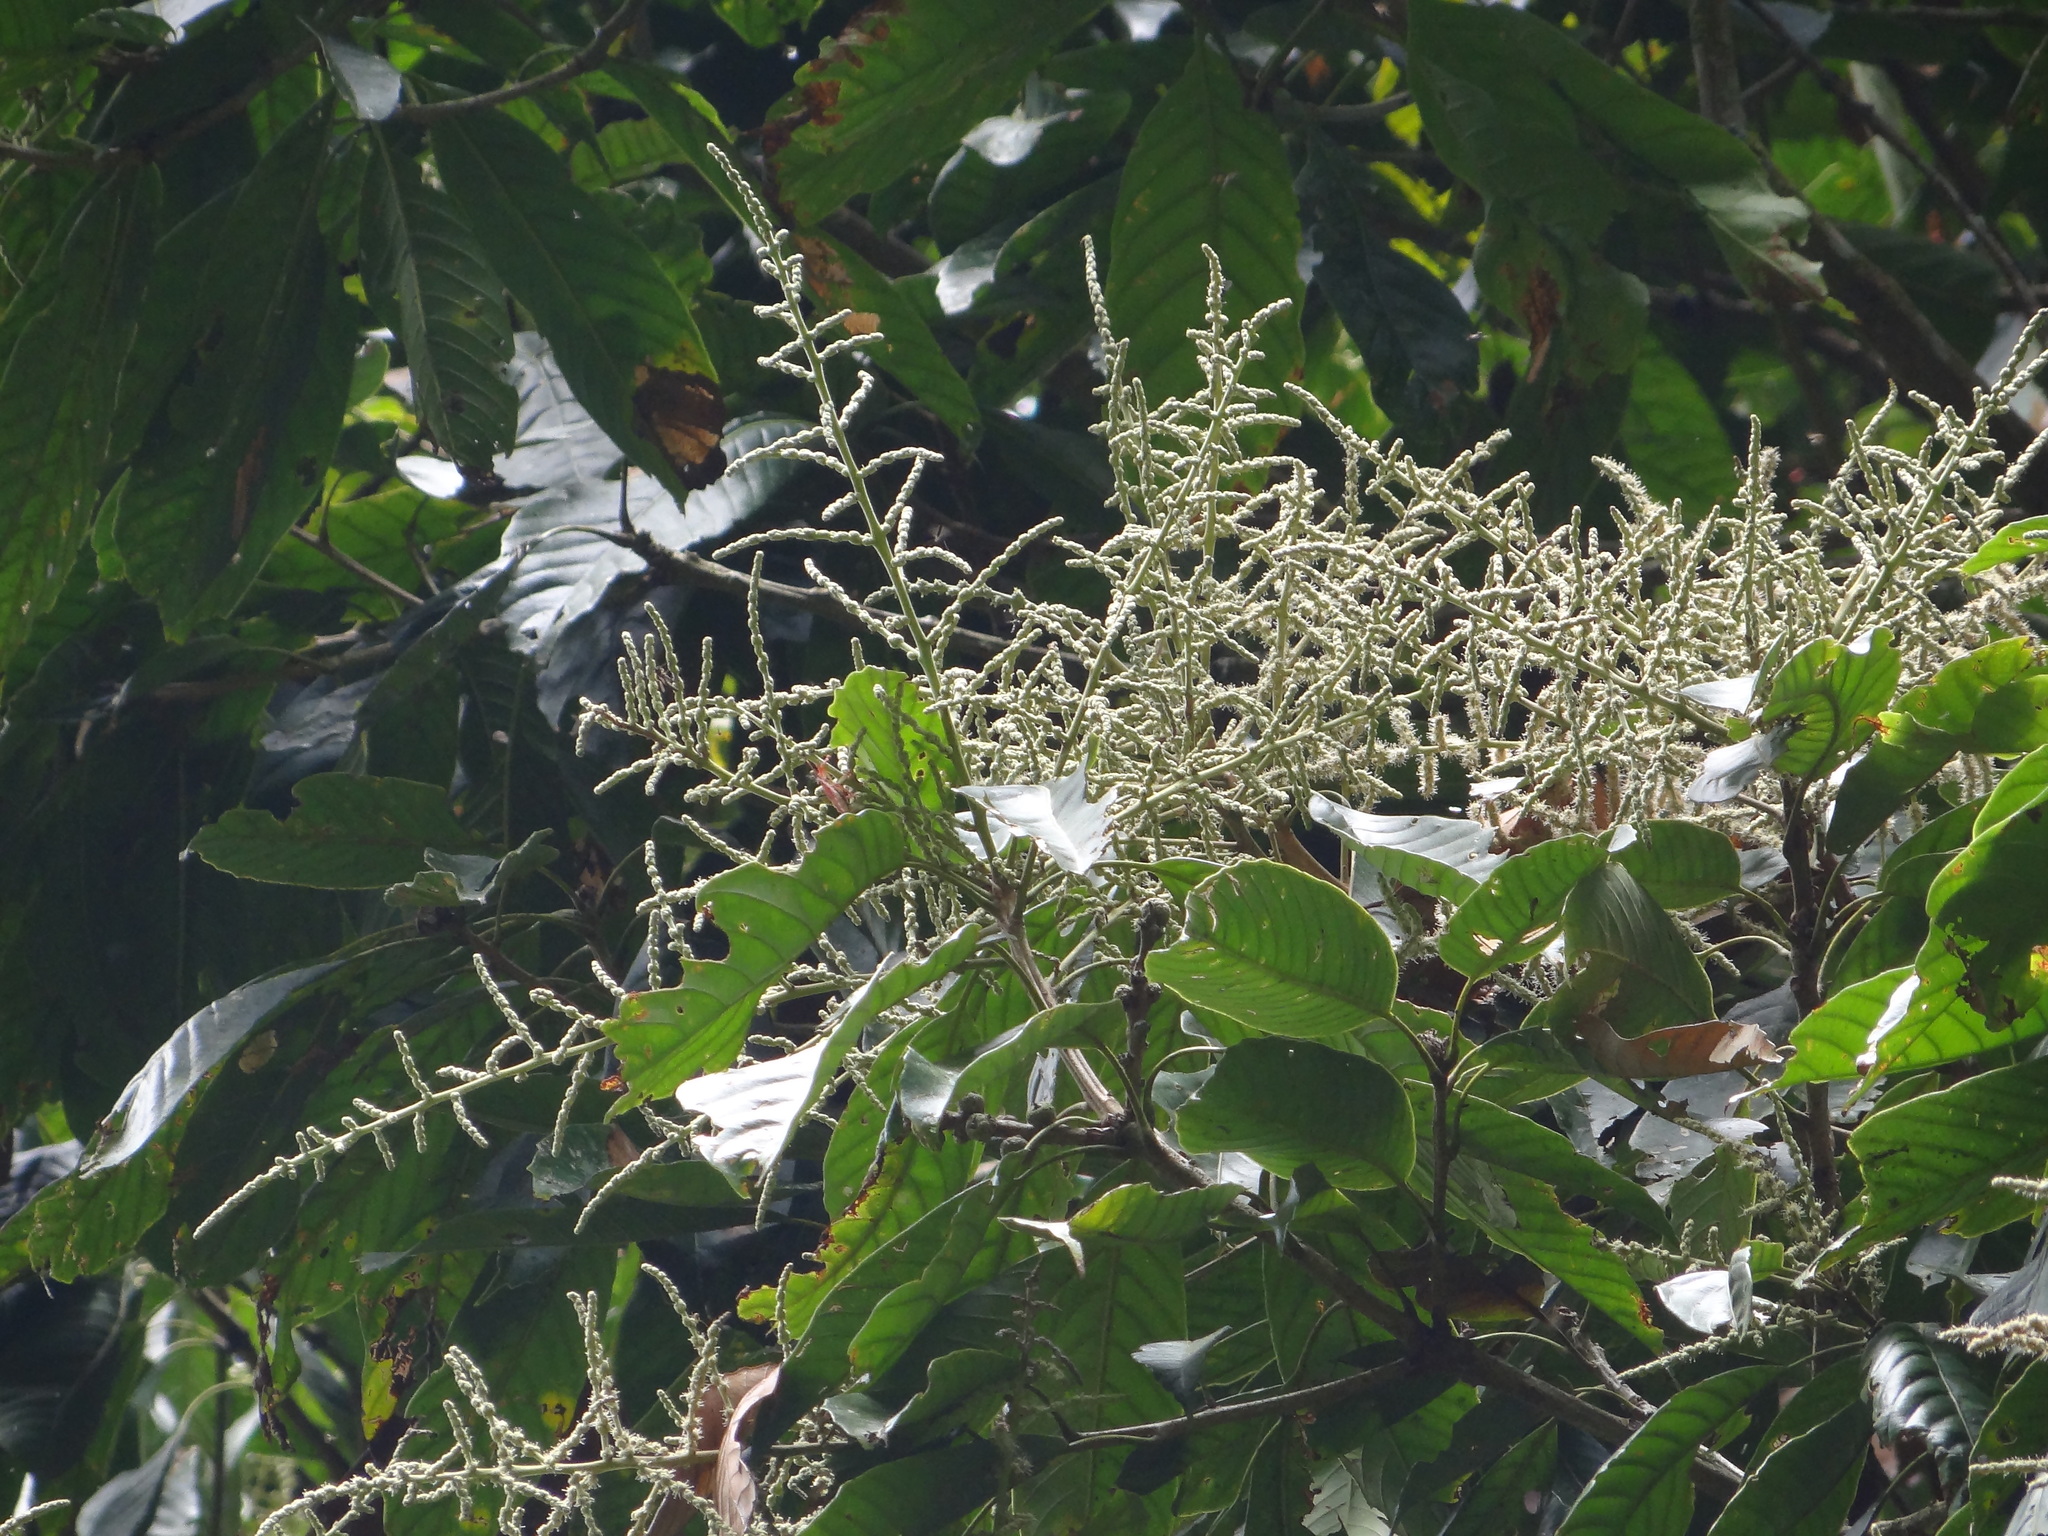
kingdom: Plantae
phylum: Tracheophyta
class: Magnoliopsida
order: Fagales
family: Fagaceae
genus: Lithocarpus
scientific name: Lithocarpus kawakamii
